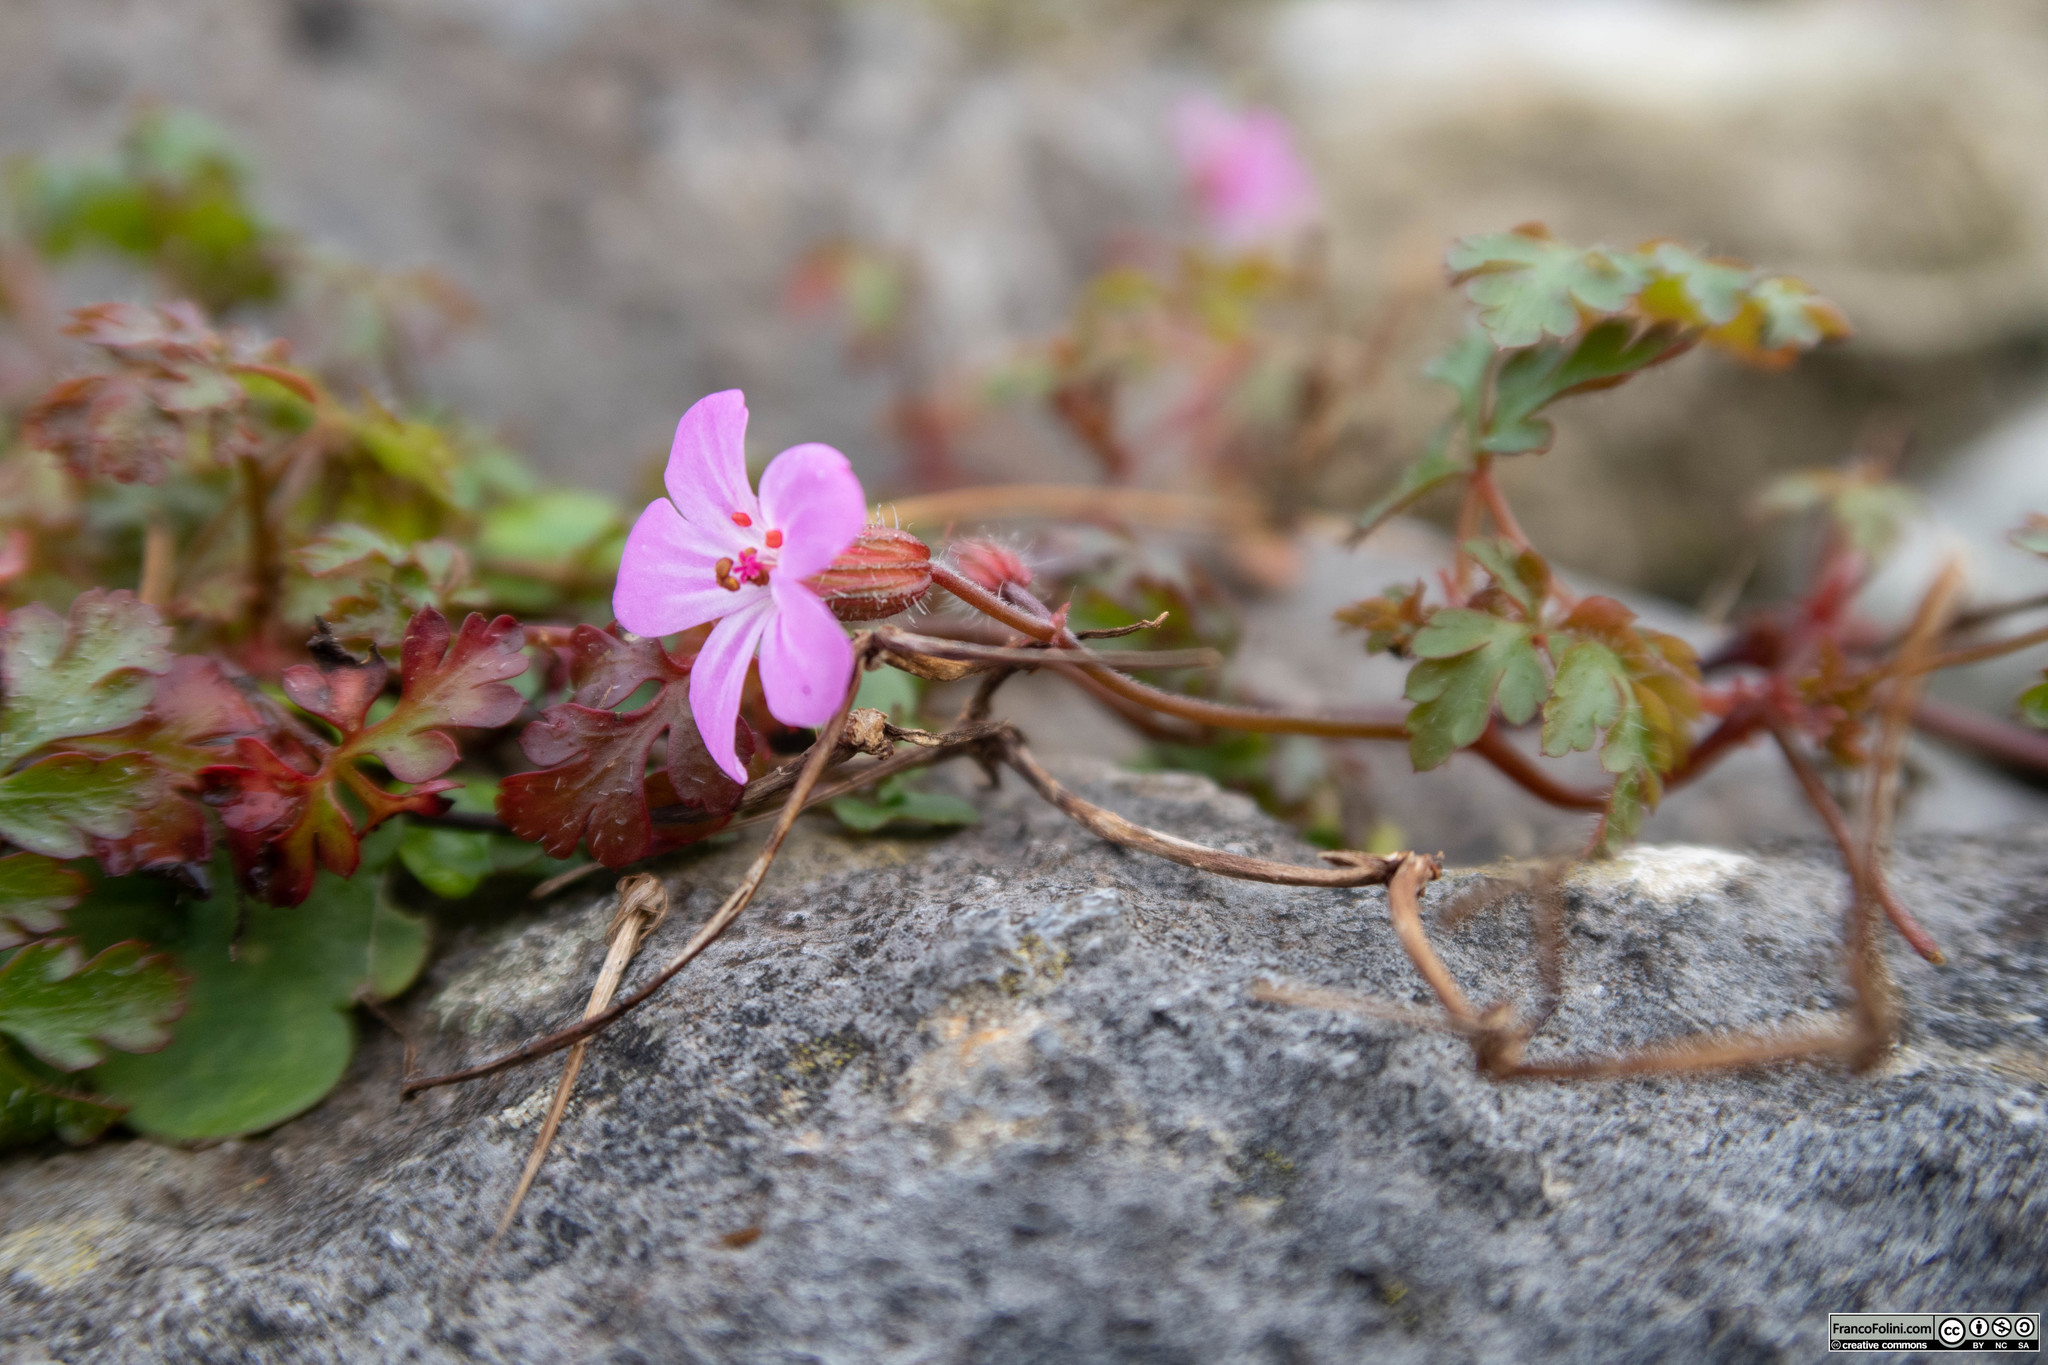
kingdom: Plantae
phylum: Tracheophyta
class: Magnoliopsida
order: Geraniales
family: Geraniaceae
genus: Geranium
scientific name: Geranium robertianum
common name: Herb-robert
